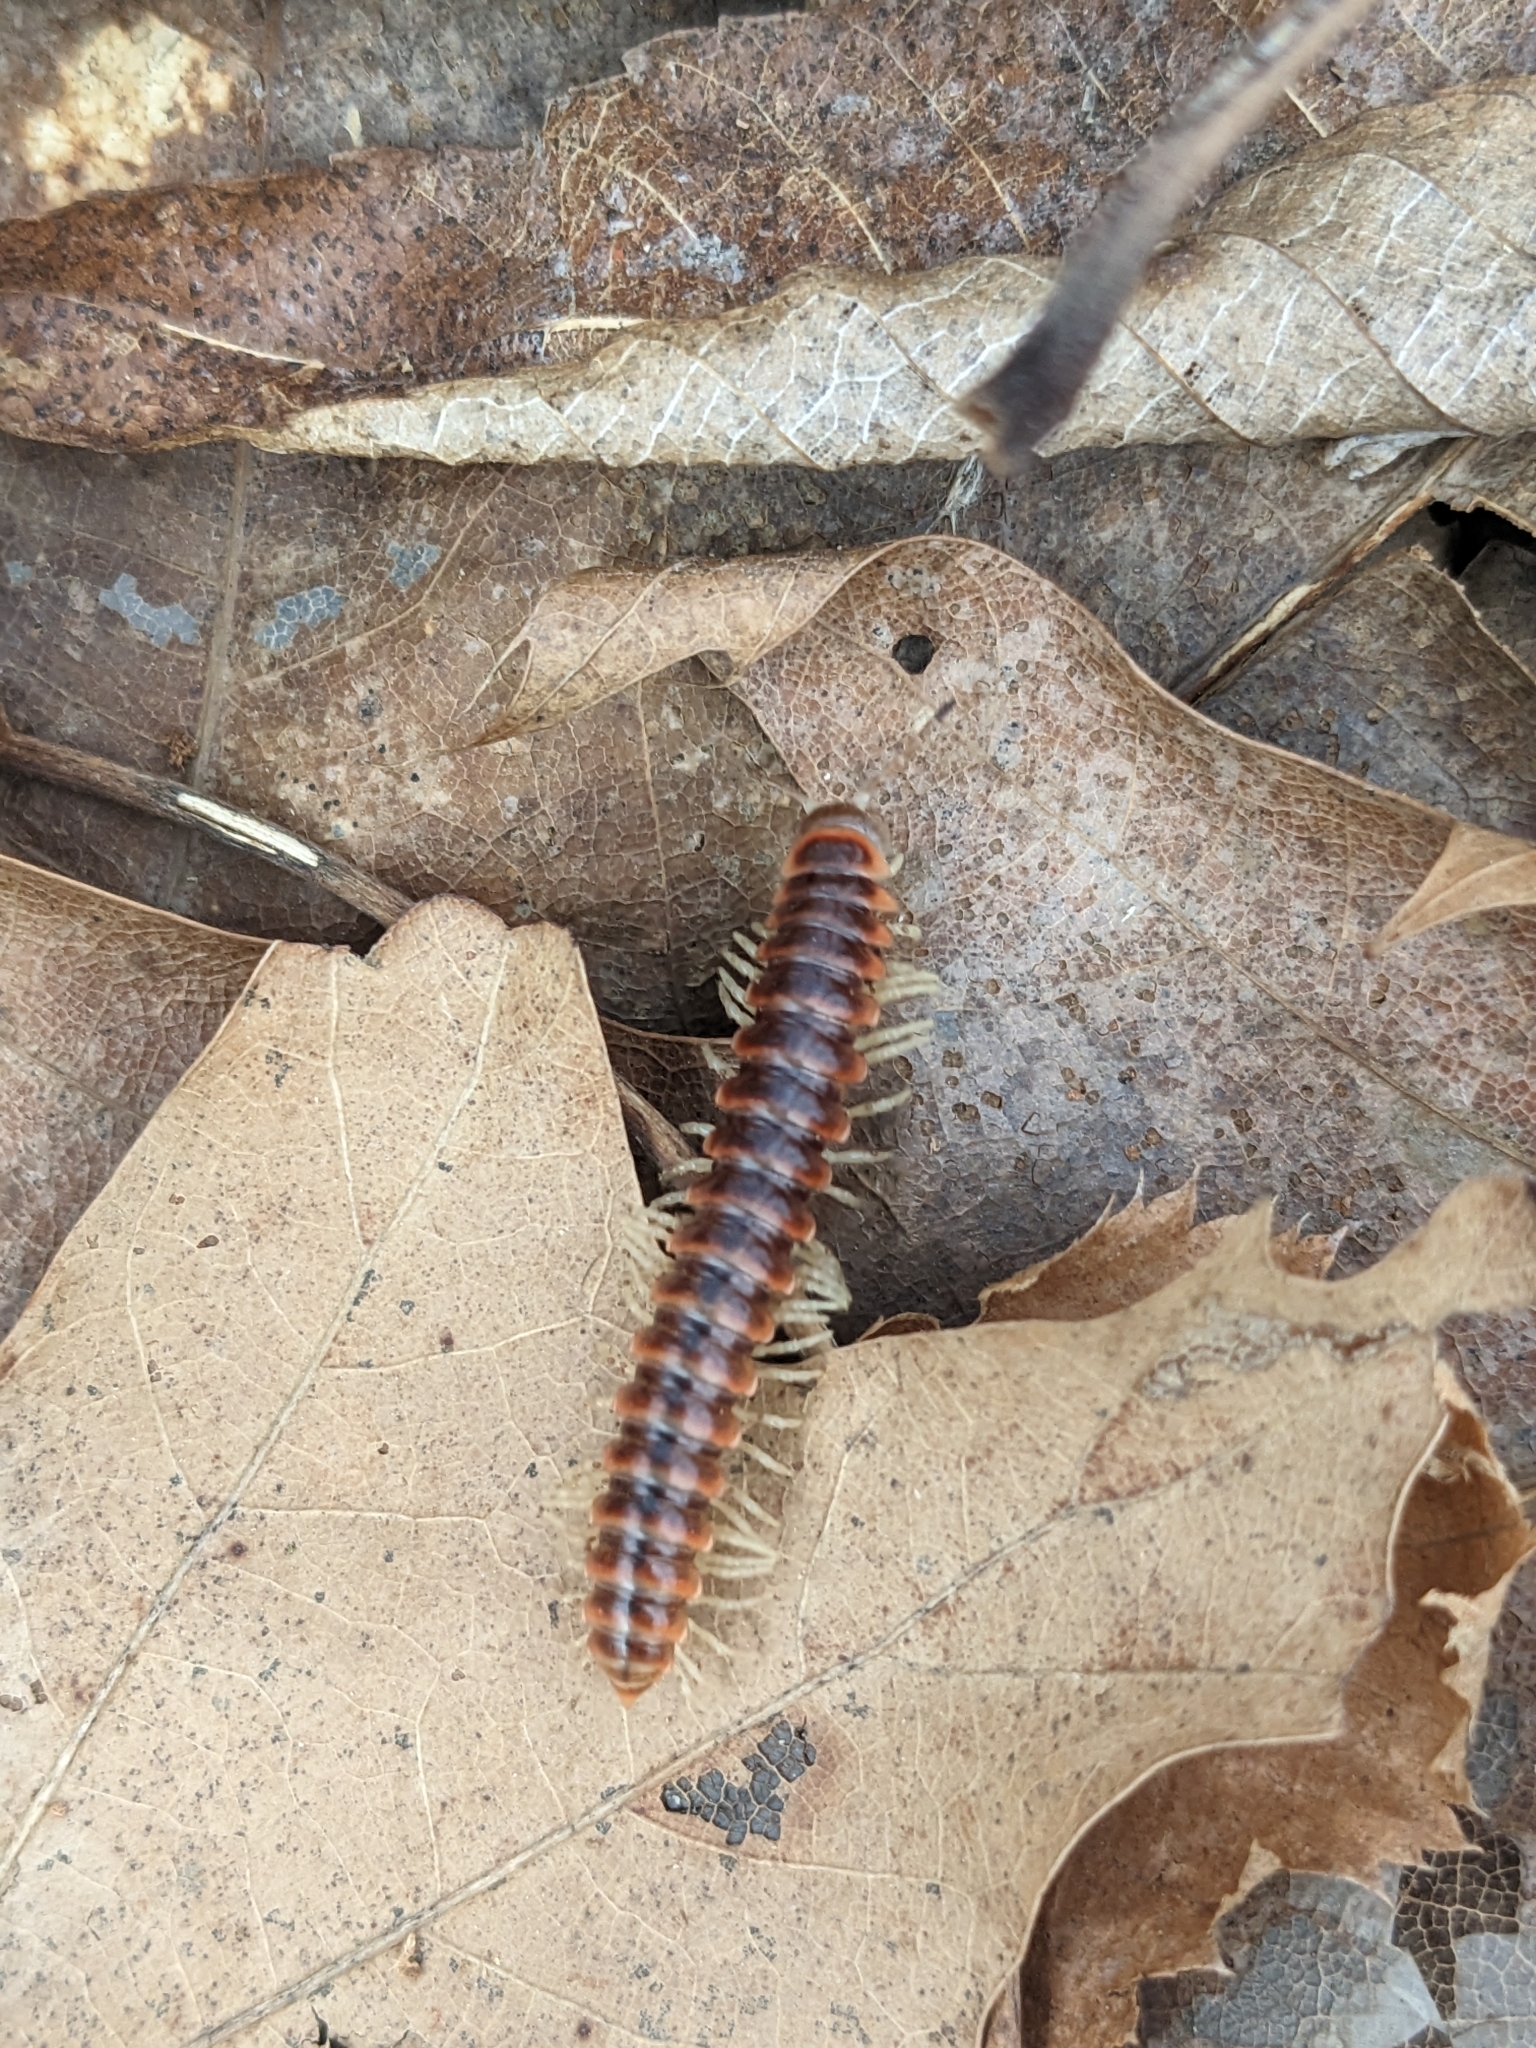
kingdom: Animalia
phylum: Arthropoda
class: Diplopoda
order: Polydesmida
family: Xystodesmidae
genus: Semionellus
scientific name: Semionellus placidus
